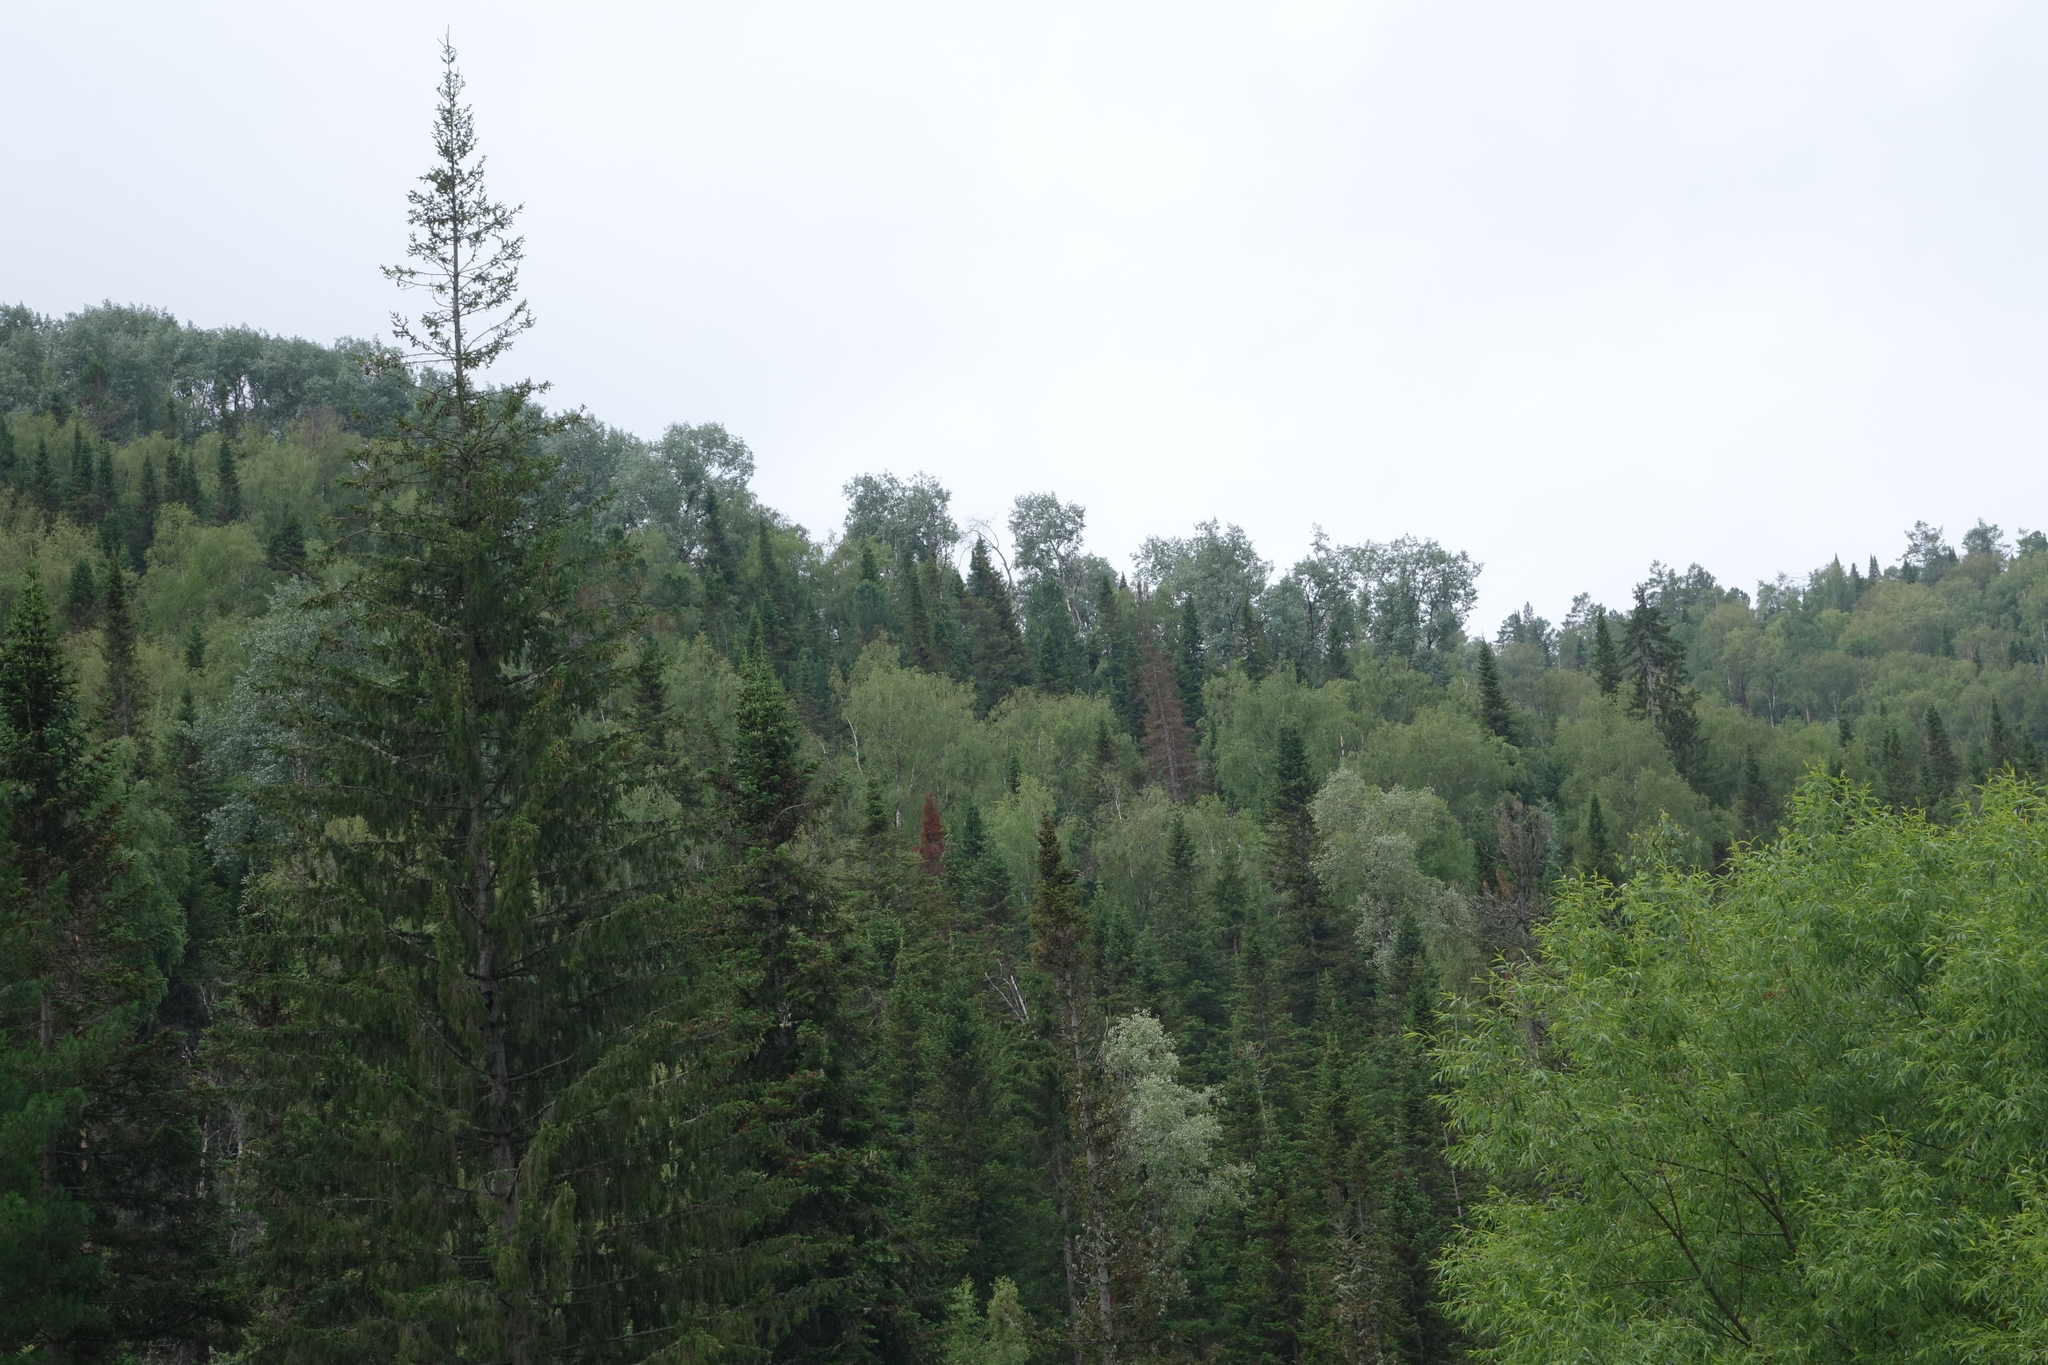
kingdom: Plantae
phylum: Tracheophyta
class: Pinopsida
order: Pinales
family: Pinaceae
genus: Picea
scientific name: Picea obovata
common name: Siberian spruce
